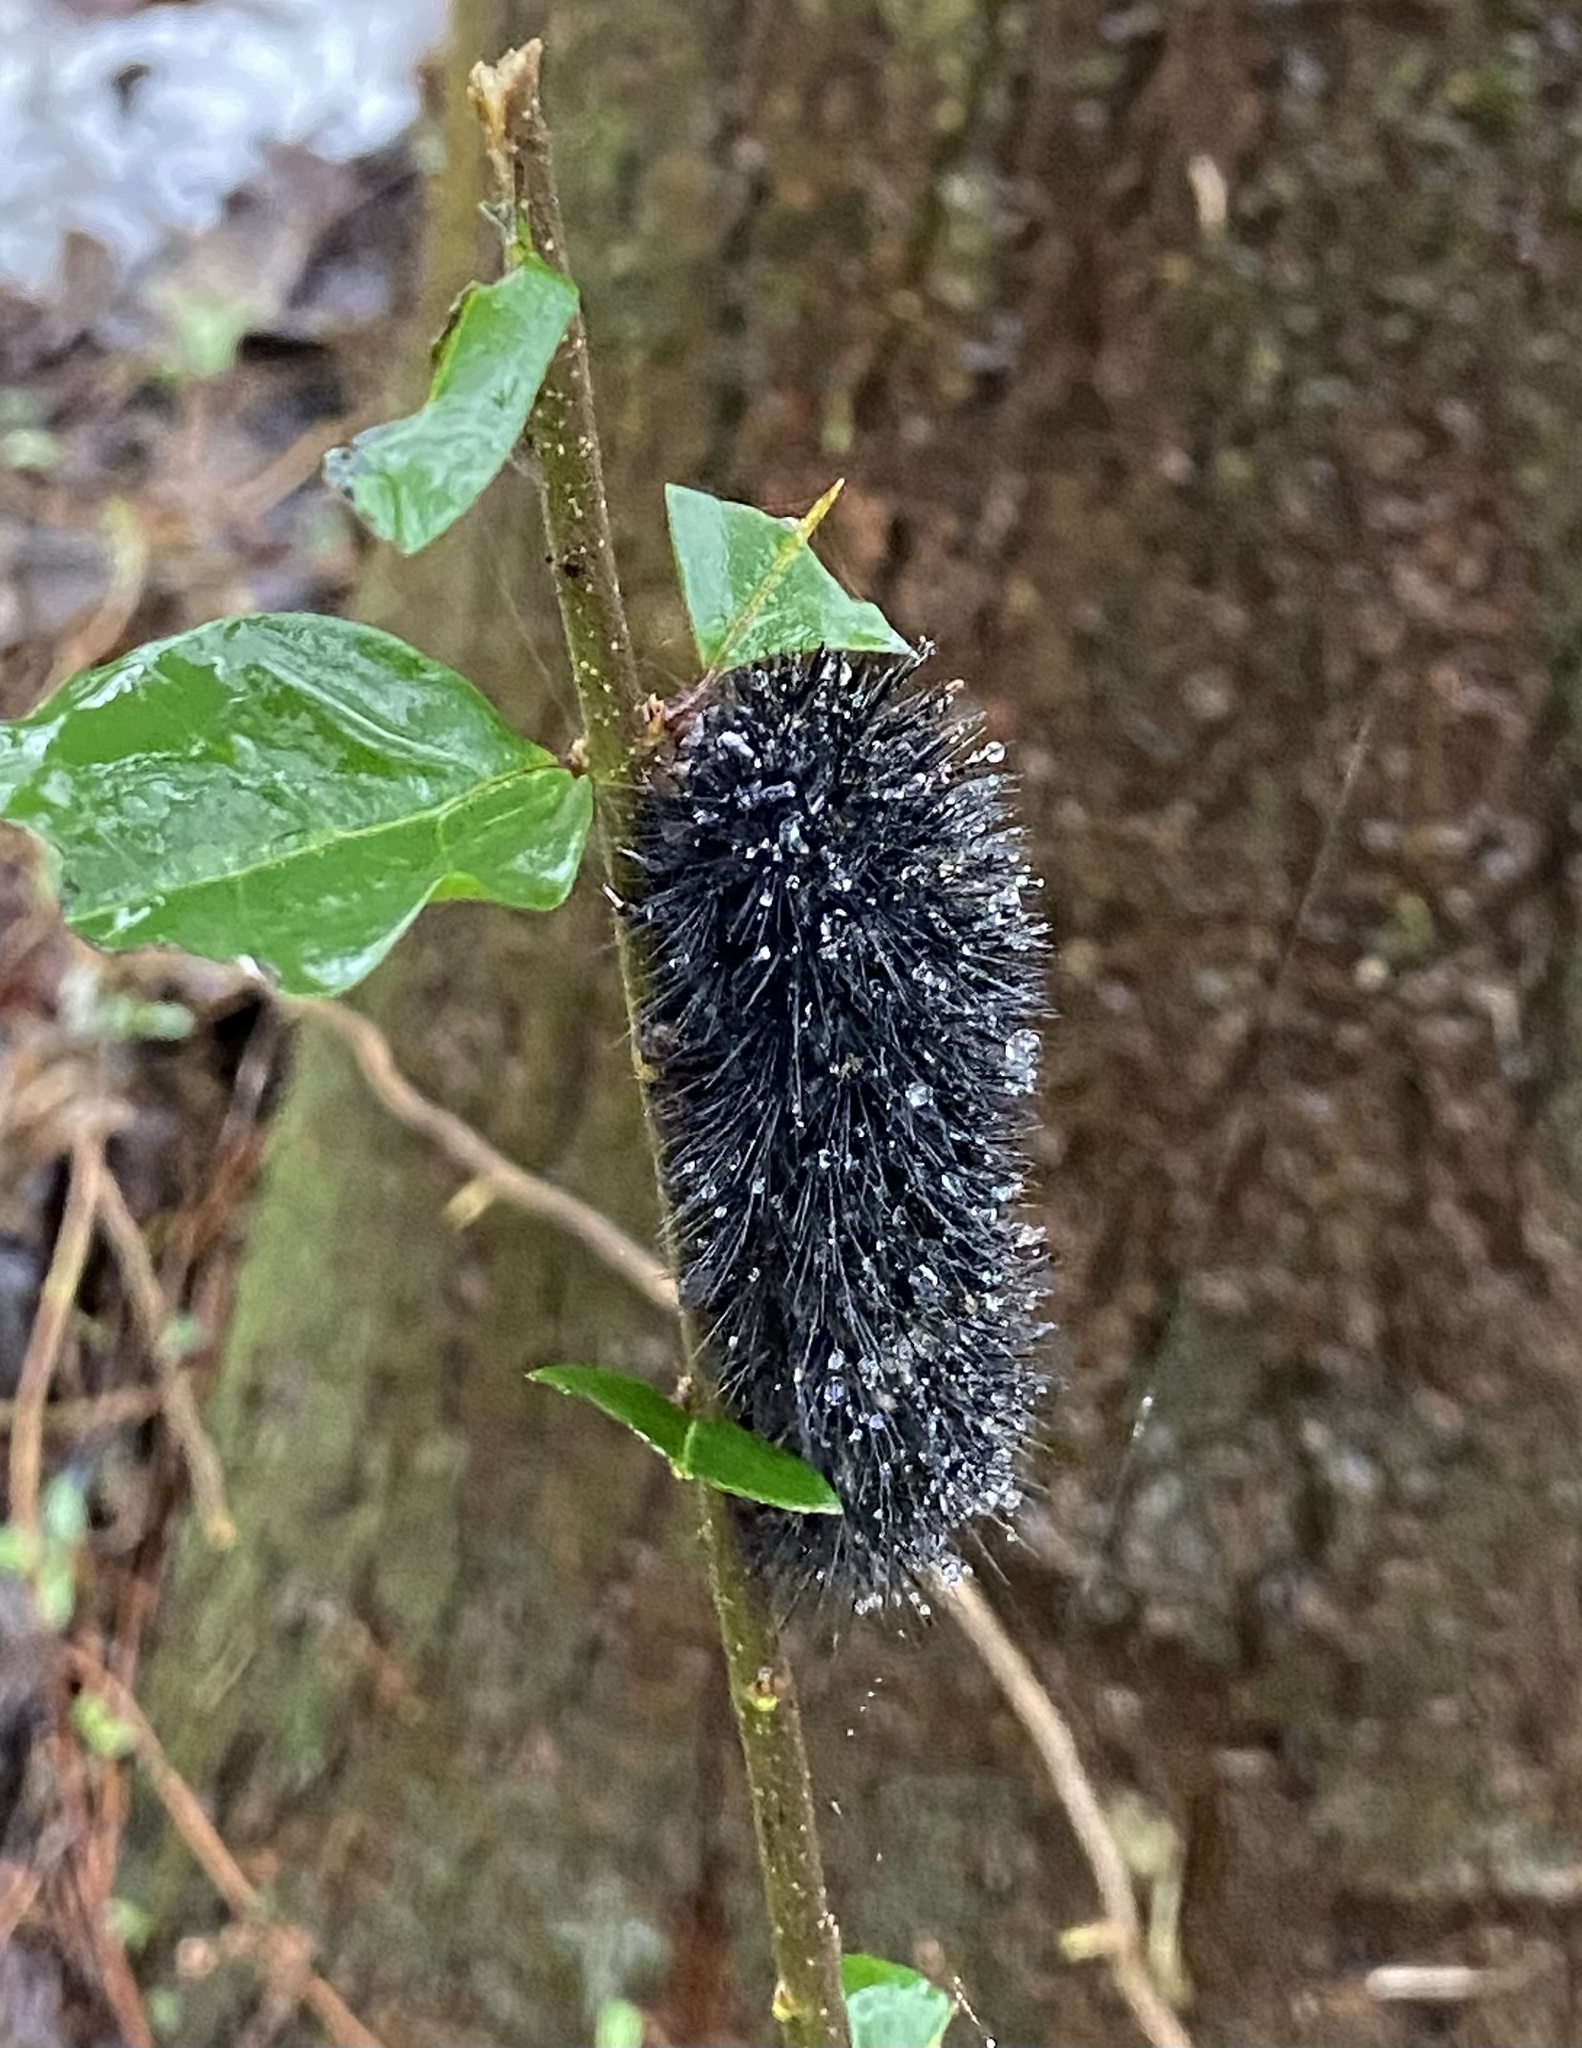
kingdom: Animalia
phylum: Arthropoda
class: Insecta
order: Lepidoptera
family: Erebidae
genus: Hypercompe
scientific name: Hypercompe scribonia
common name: Giant leopard moth
